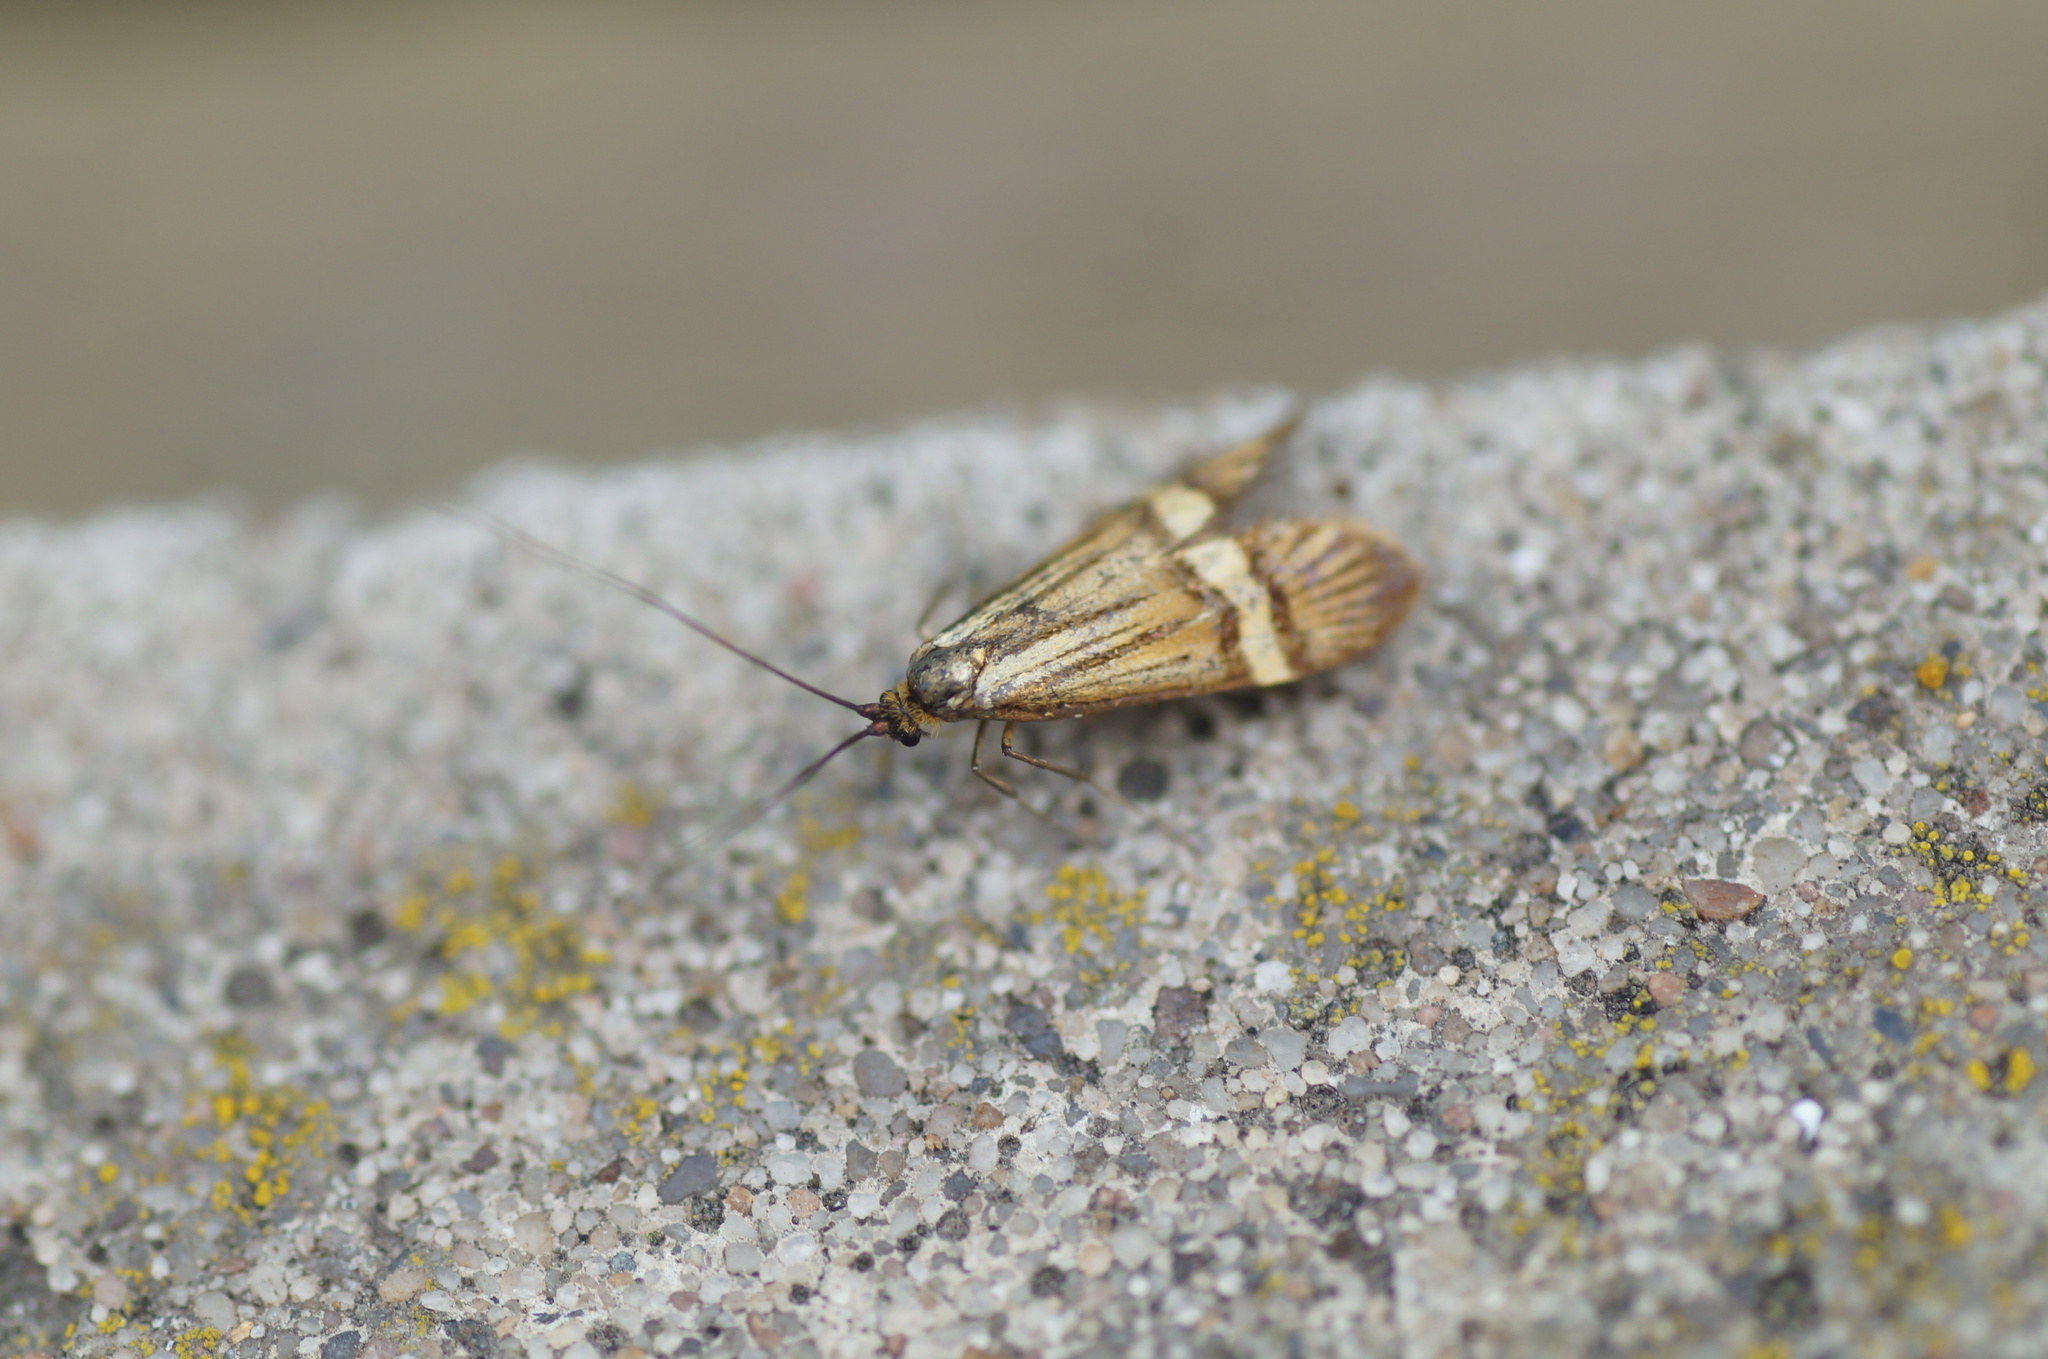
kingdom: Animalia
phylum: Arthropoda
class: Insecta
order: Lepidoptera
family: Adelidae
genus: Nemophora
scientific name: Nemophora degeerella
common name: Yellow-barred long-horn
